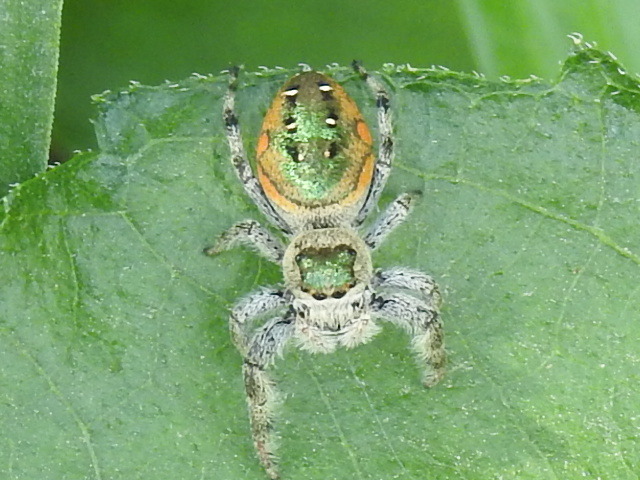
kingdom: Animalia
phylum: Arthropoda
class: Arachnida
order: Araneae
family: Salticidae
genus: Paraphidippus
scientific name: Paraphidippus aurantius
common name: Jumping spiders
